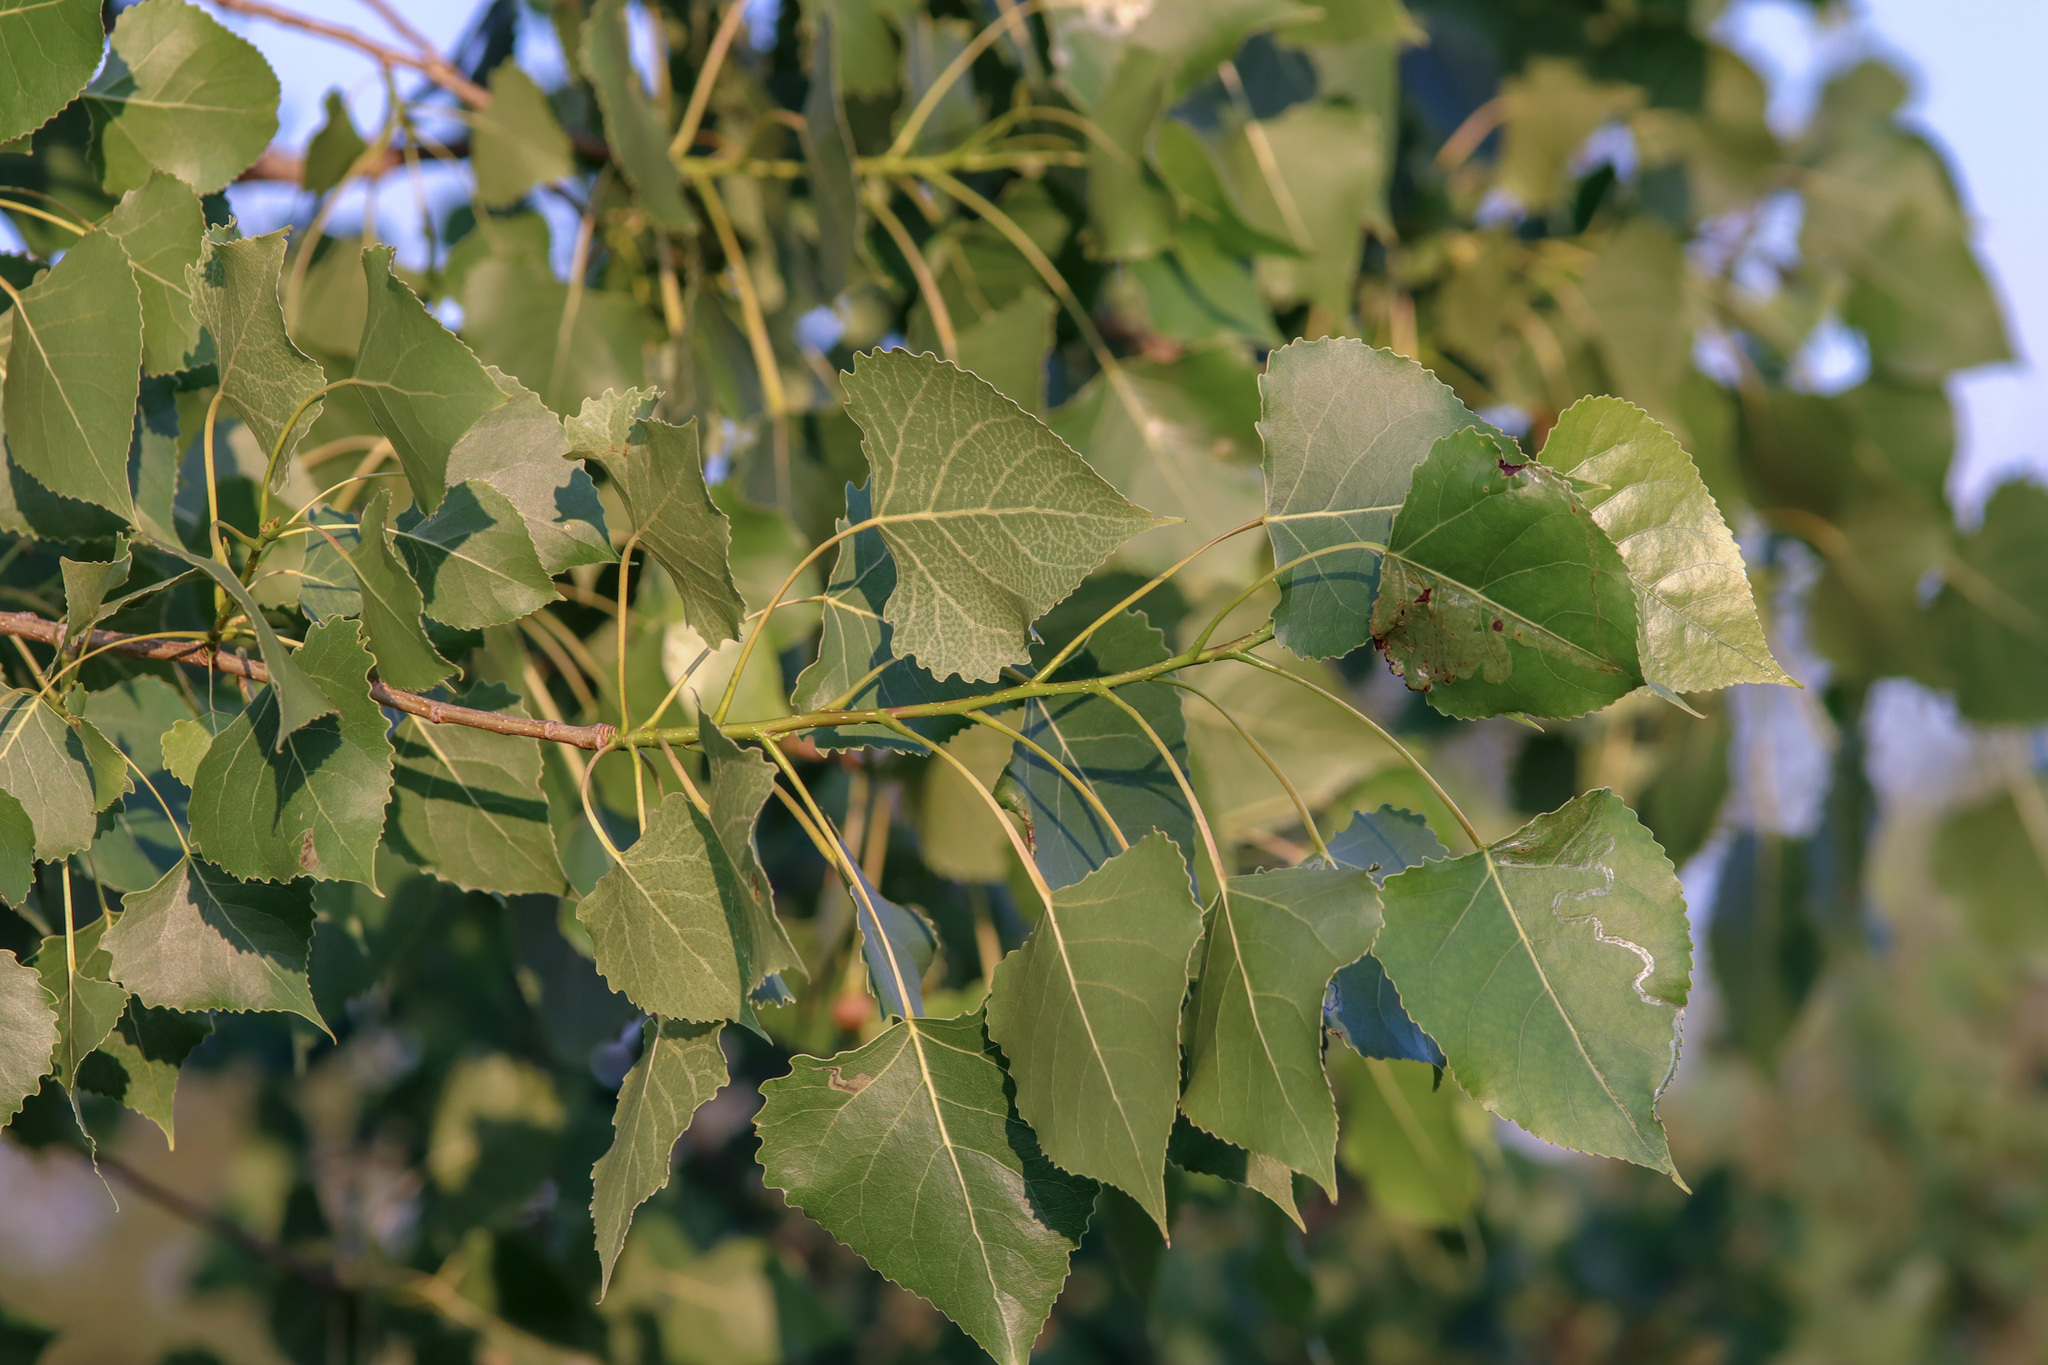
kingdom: Plantae
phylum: Tracheophyta
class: Magnoliopsida
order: Malpighiales
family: Salicaceae
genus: Populus
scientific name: Populus deltoides
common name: Eastern cottonwood
